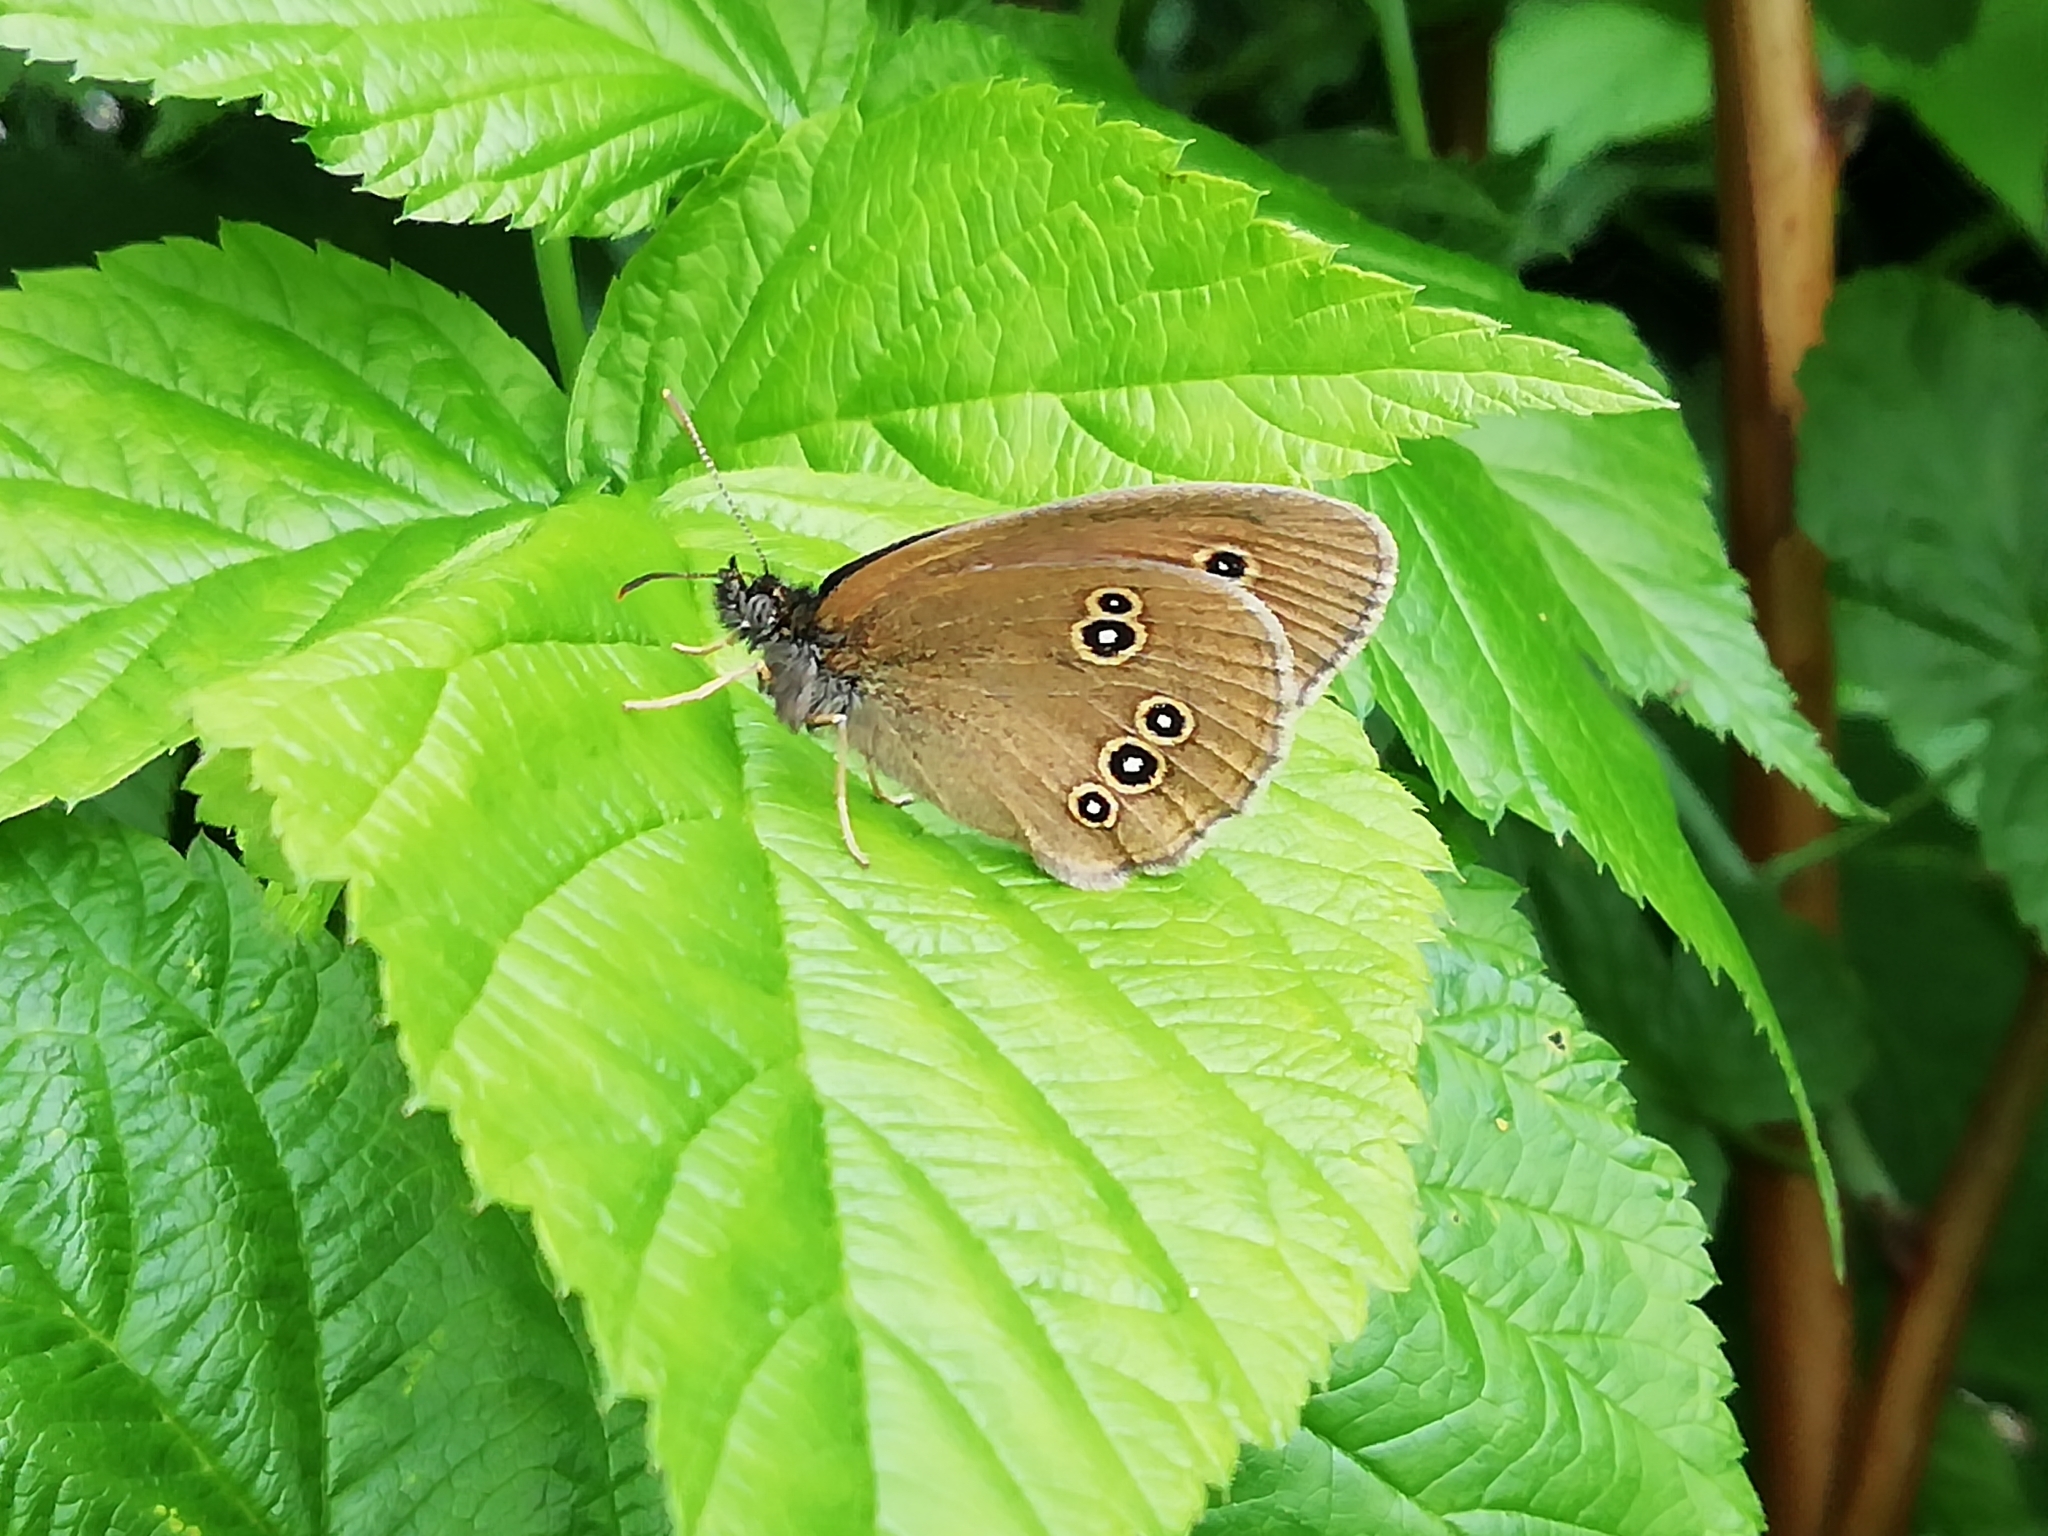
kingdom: Animalia
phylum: Arthropoda
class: Insecta
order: Lepidoptera
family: Nymphalidae
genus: Aphantopus
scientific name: Aphantopus hyperantus
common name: Ringlet
